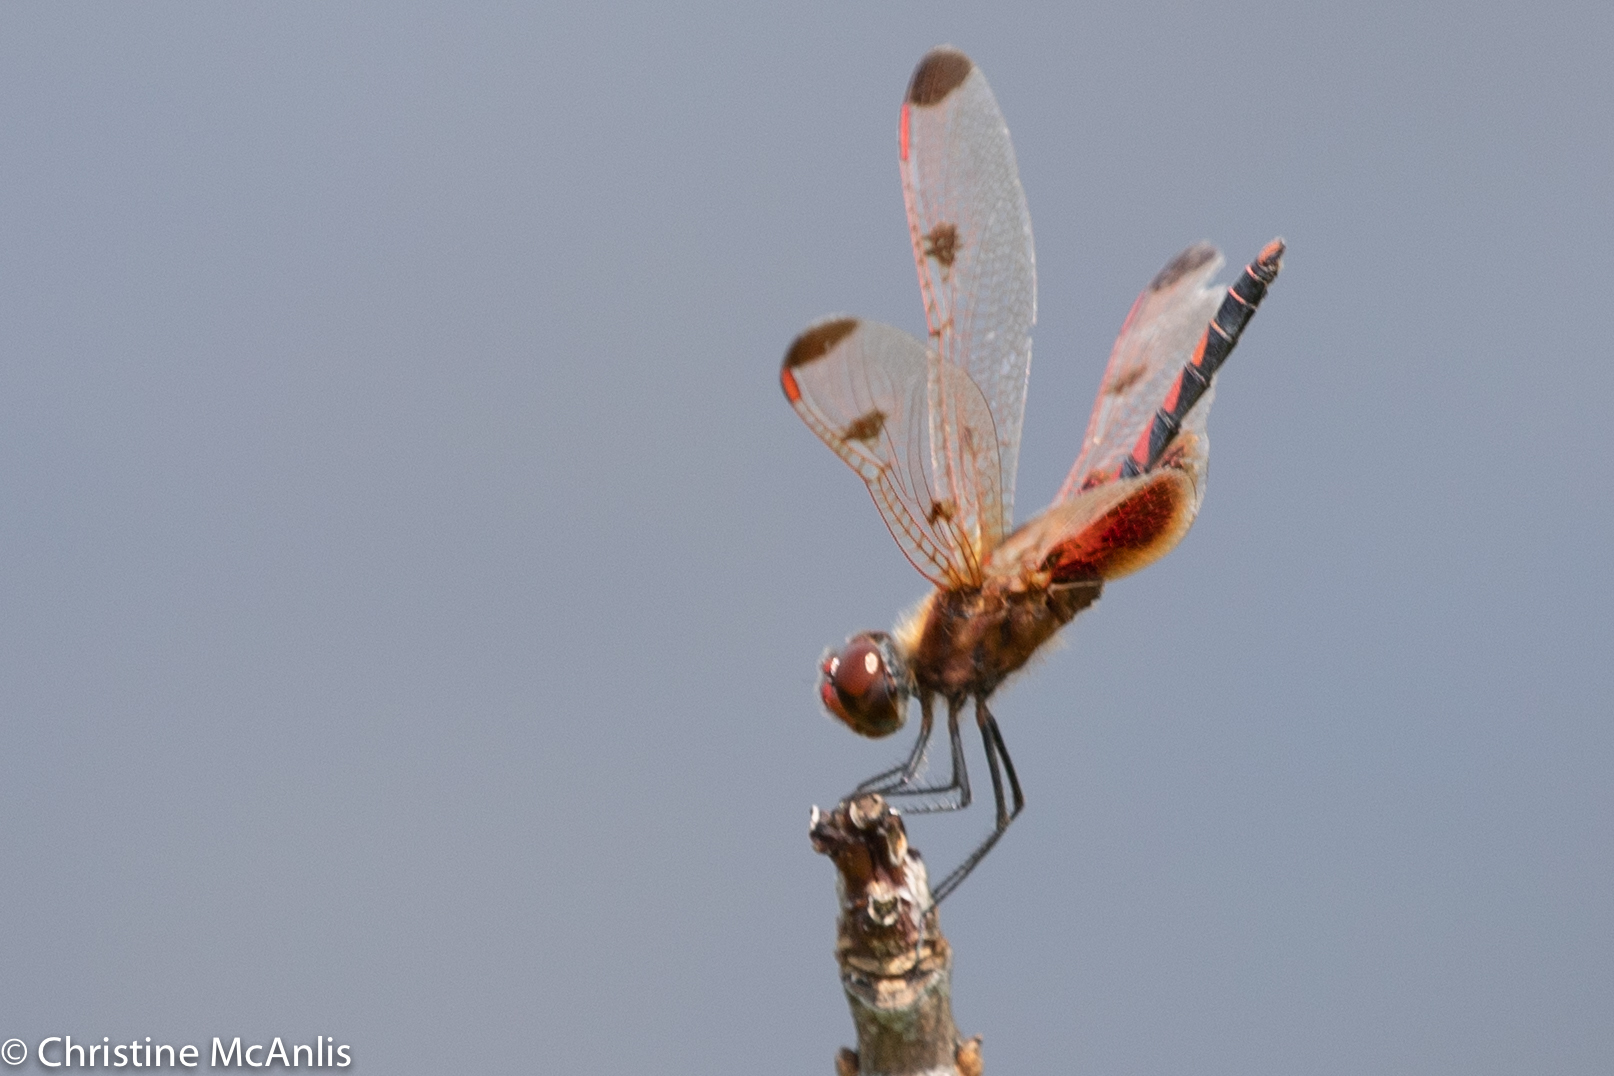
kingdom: Animalia
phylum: Arthropoda
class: Insecta
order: Odonata
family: Libellulidae
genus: Celithemis
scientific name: Celithemis elisa
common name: Calico pennant
